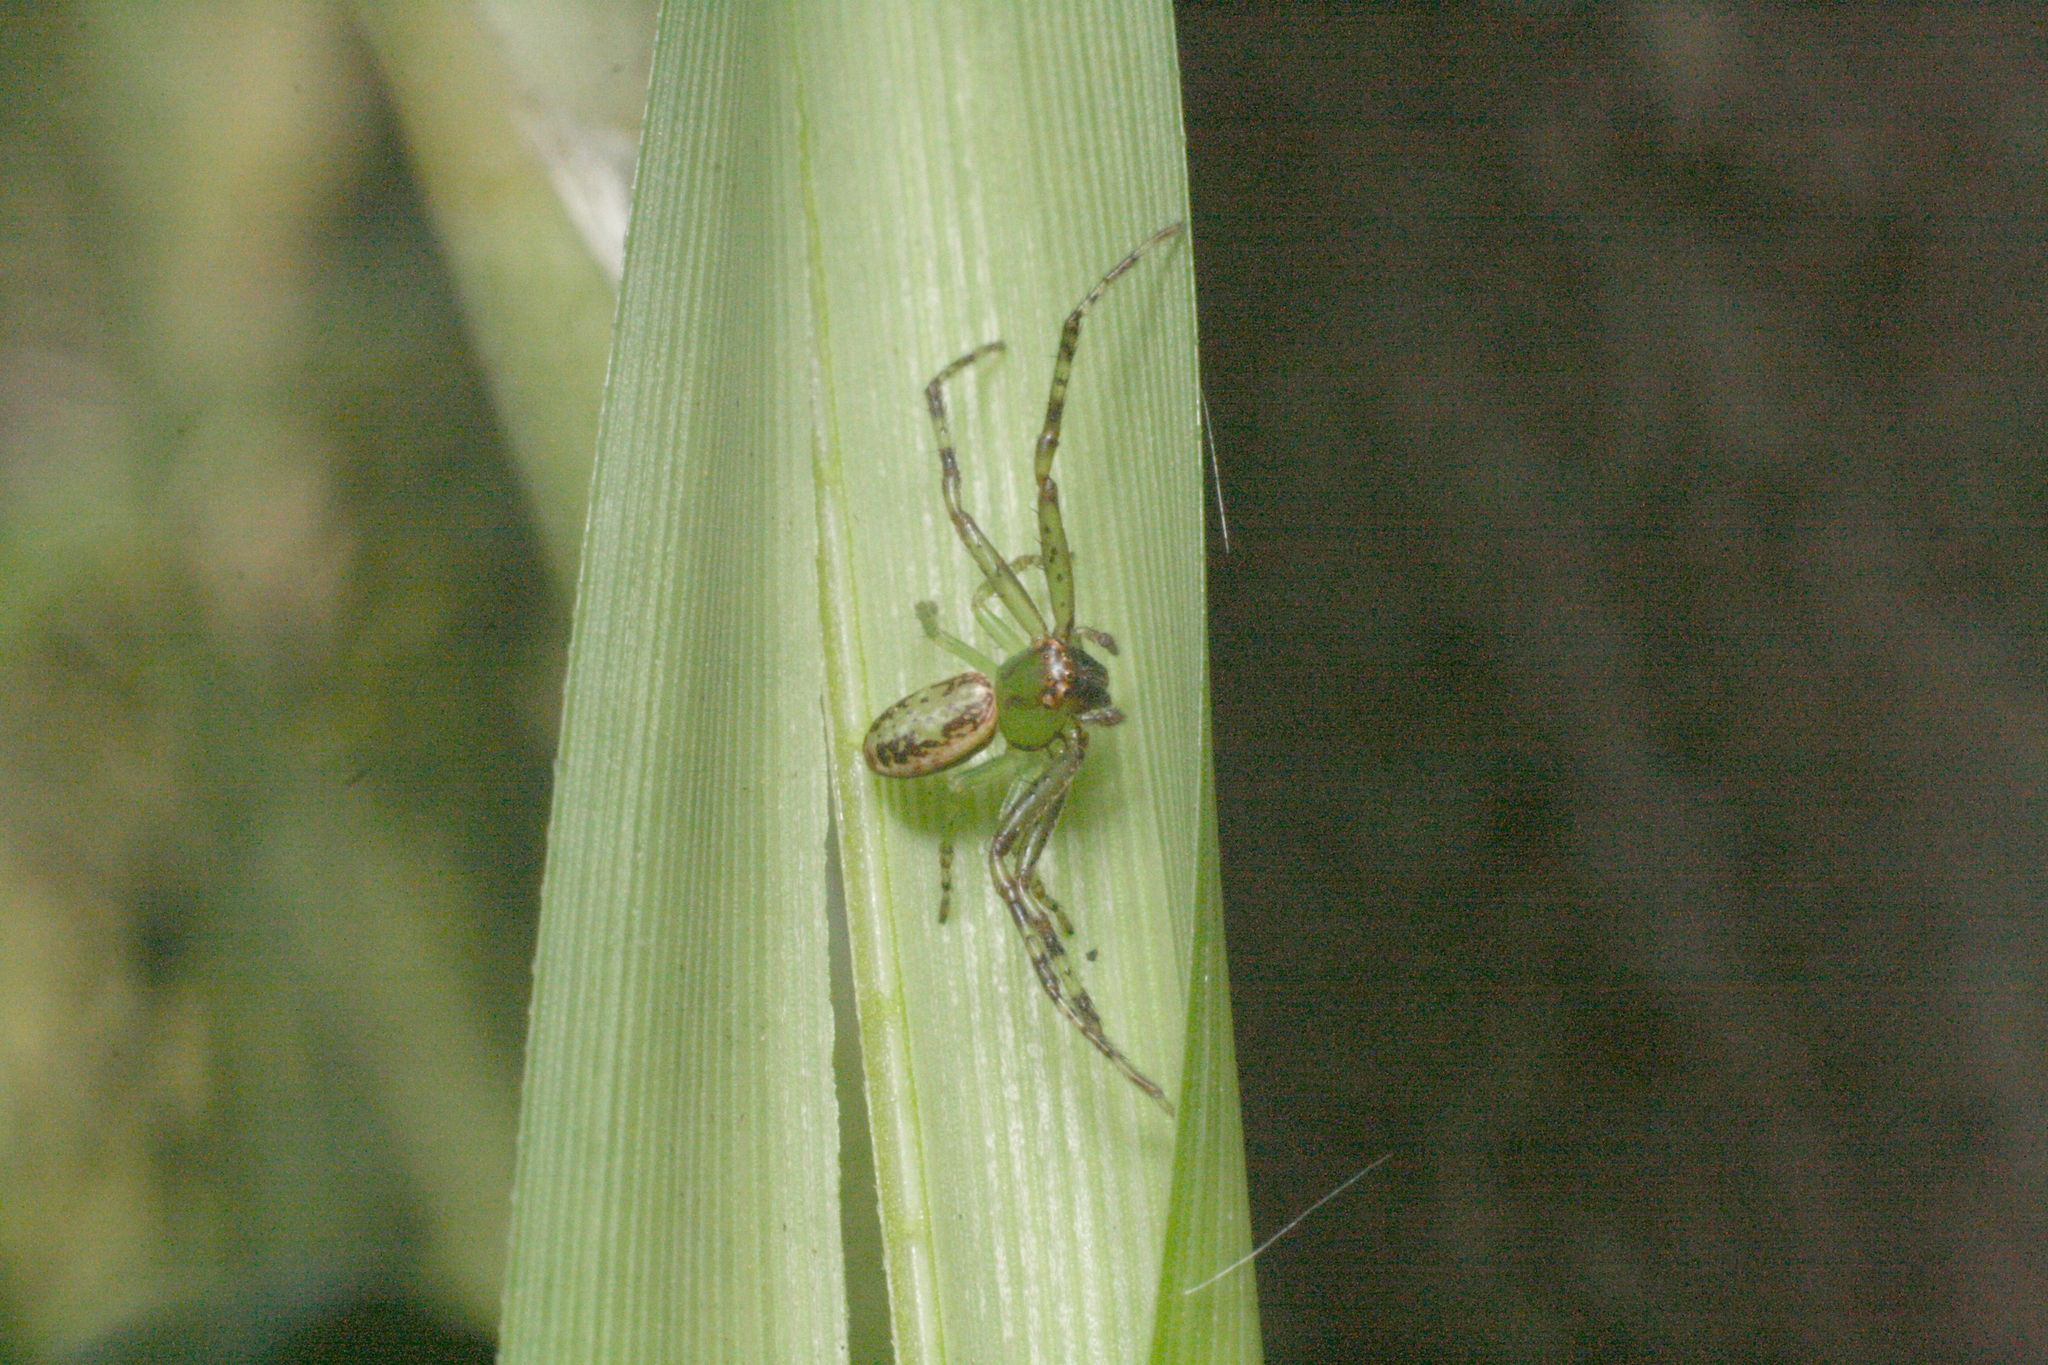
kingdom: Animalia
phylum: Arthropoda
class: Arachnida
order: Araneae
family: Thomisidae
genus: Diaea
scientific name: Diaea ambara
